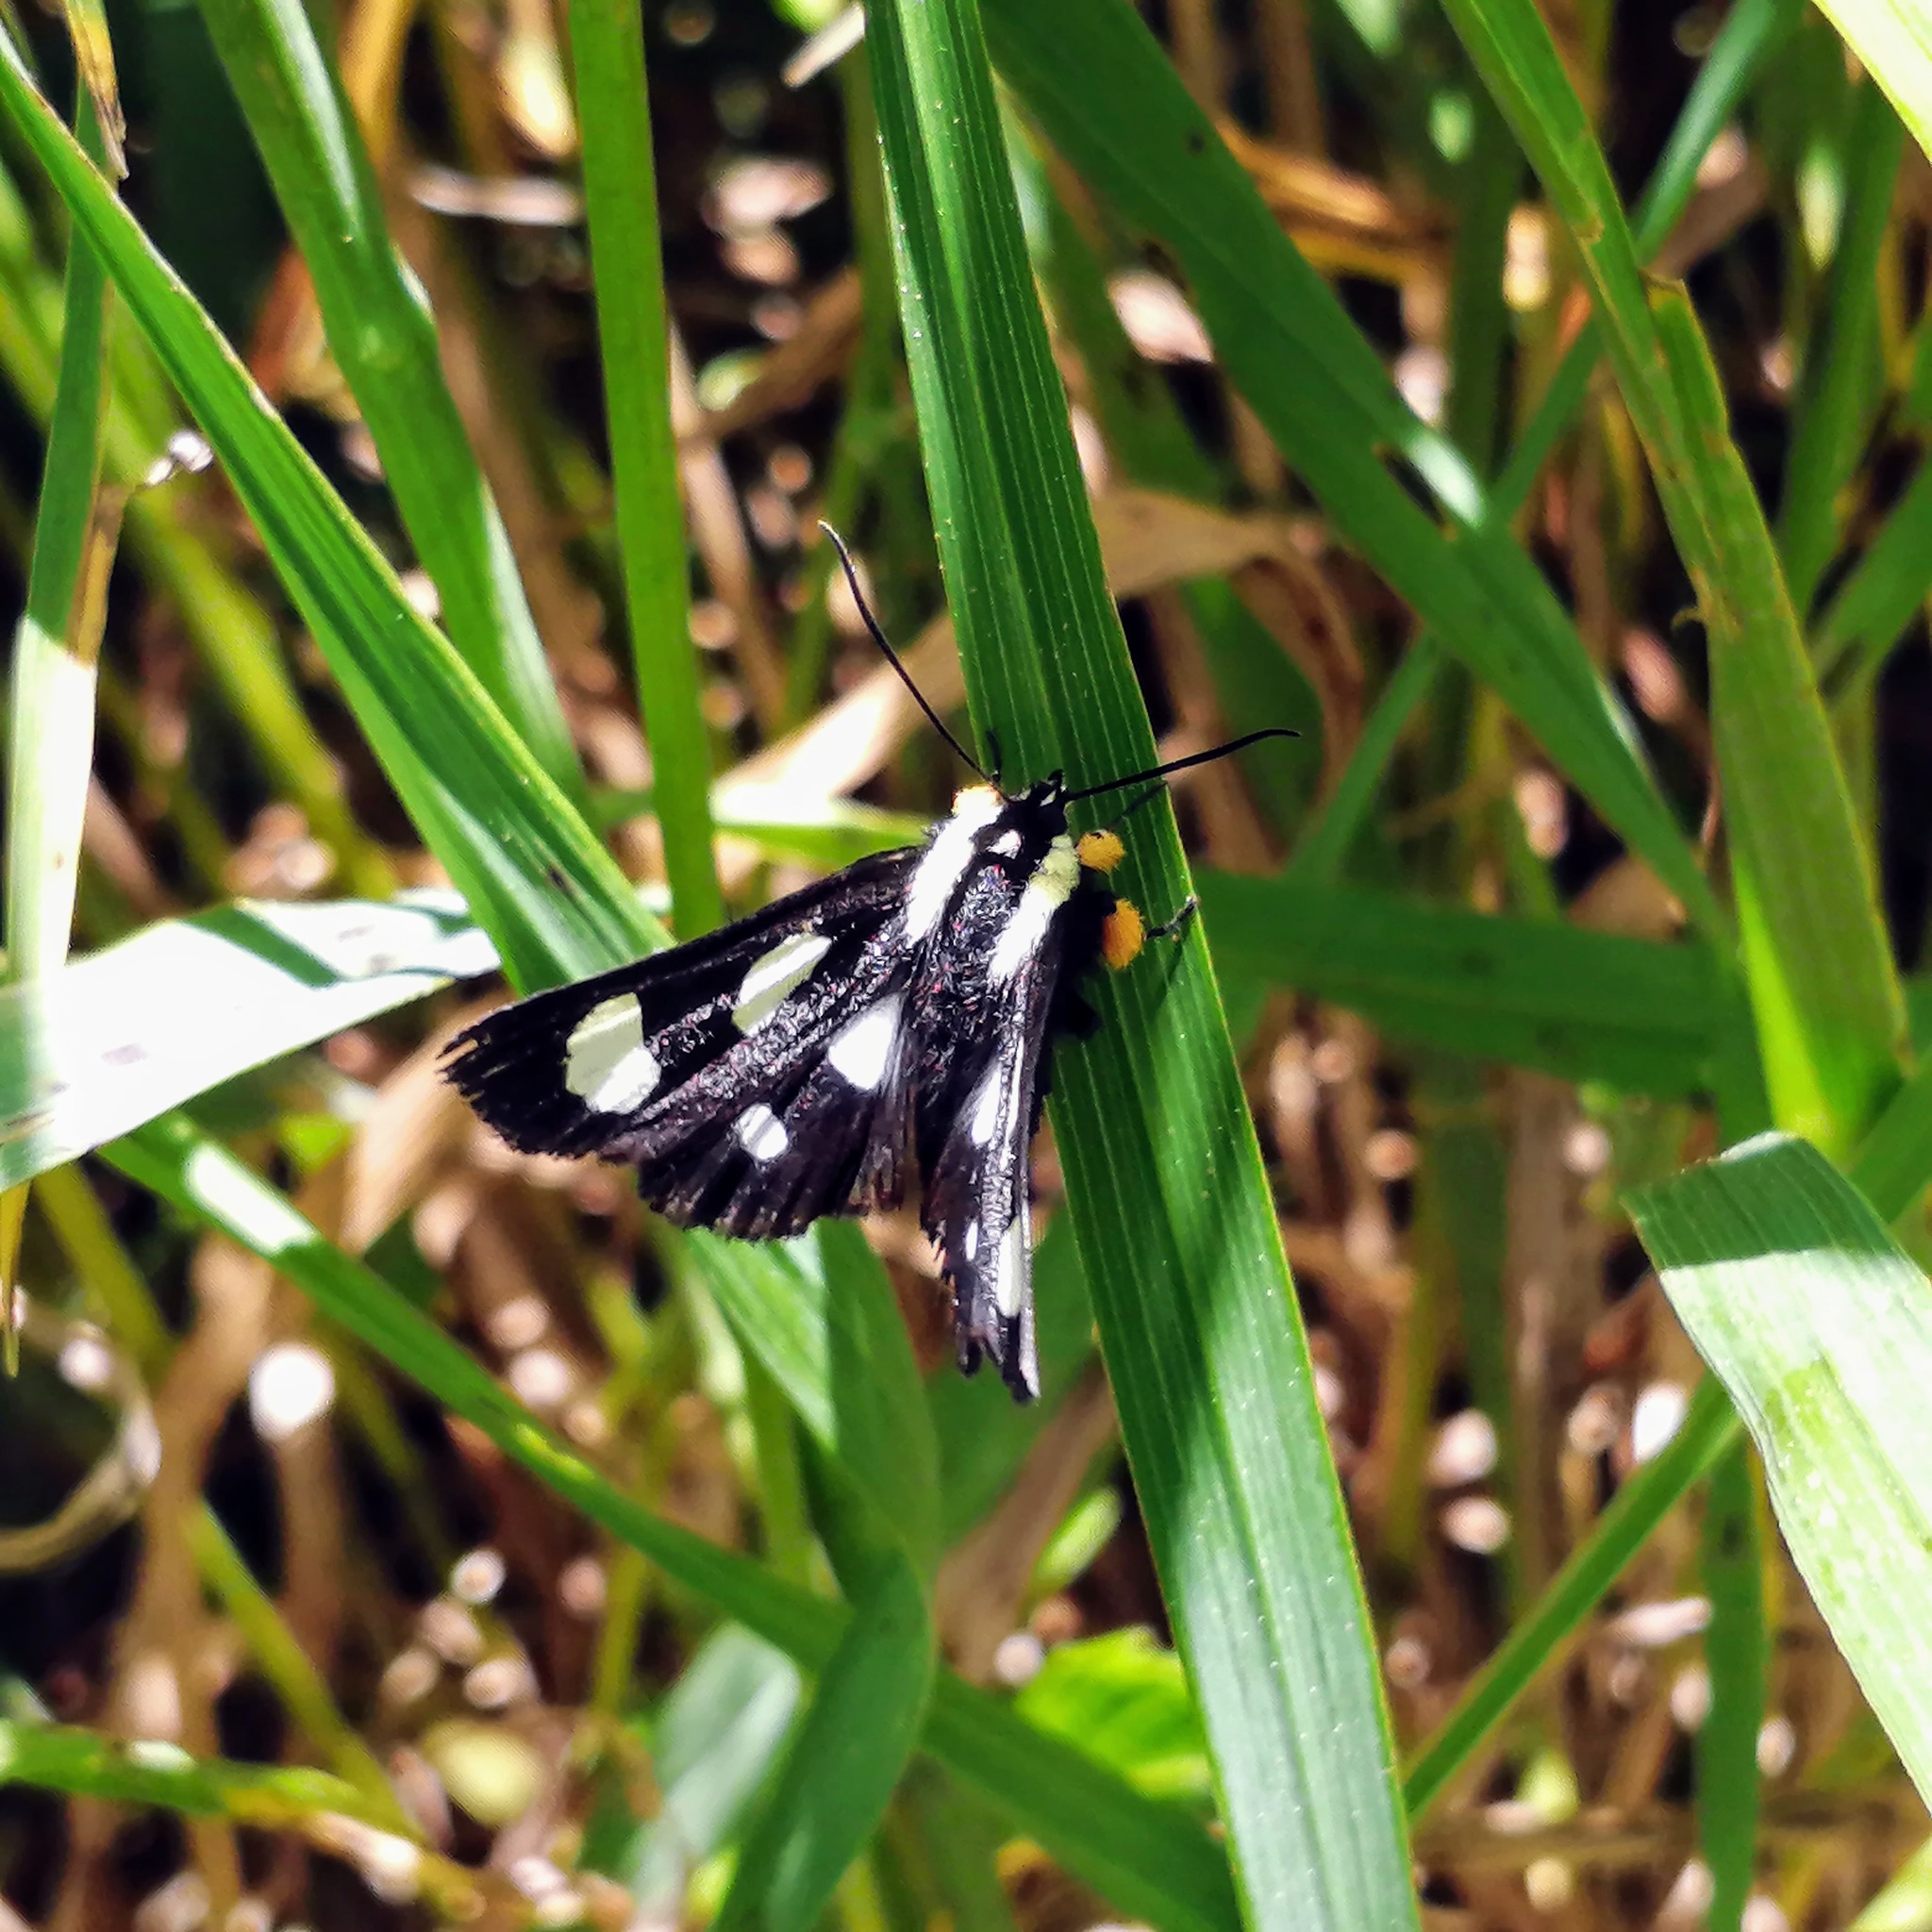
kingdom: Animalia
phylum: Arthropoda
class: Insecta
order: Lepidoptera
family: Noctuidae
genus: Alypia
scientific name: Alypia octomaculata
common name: Eight-spotted forester
